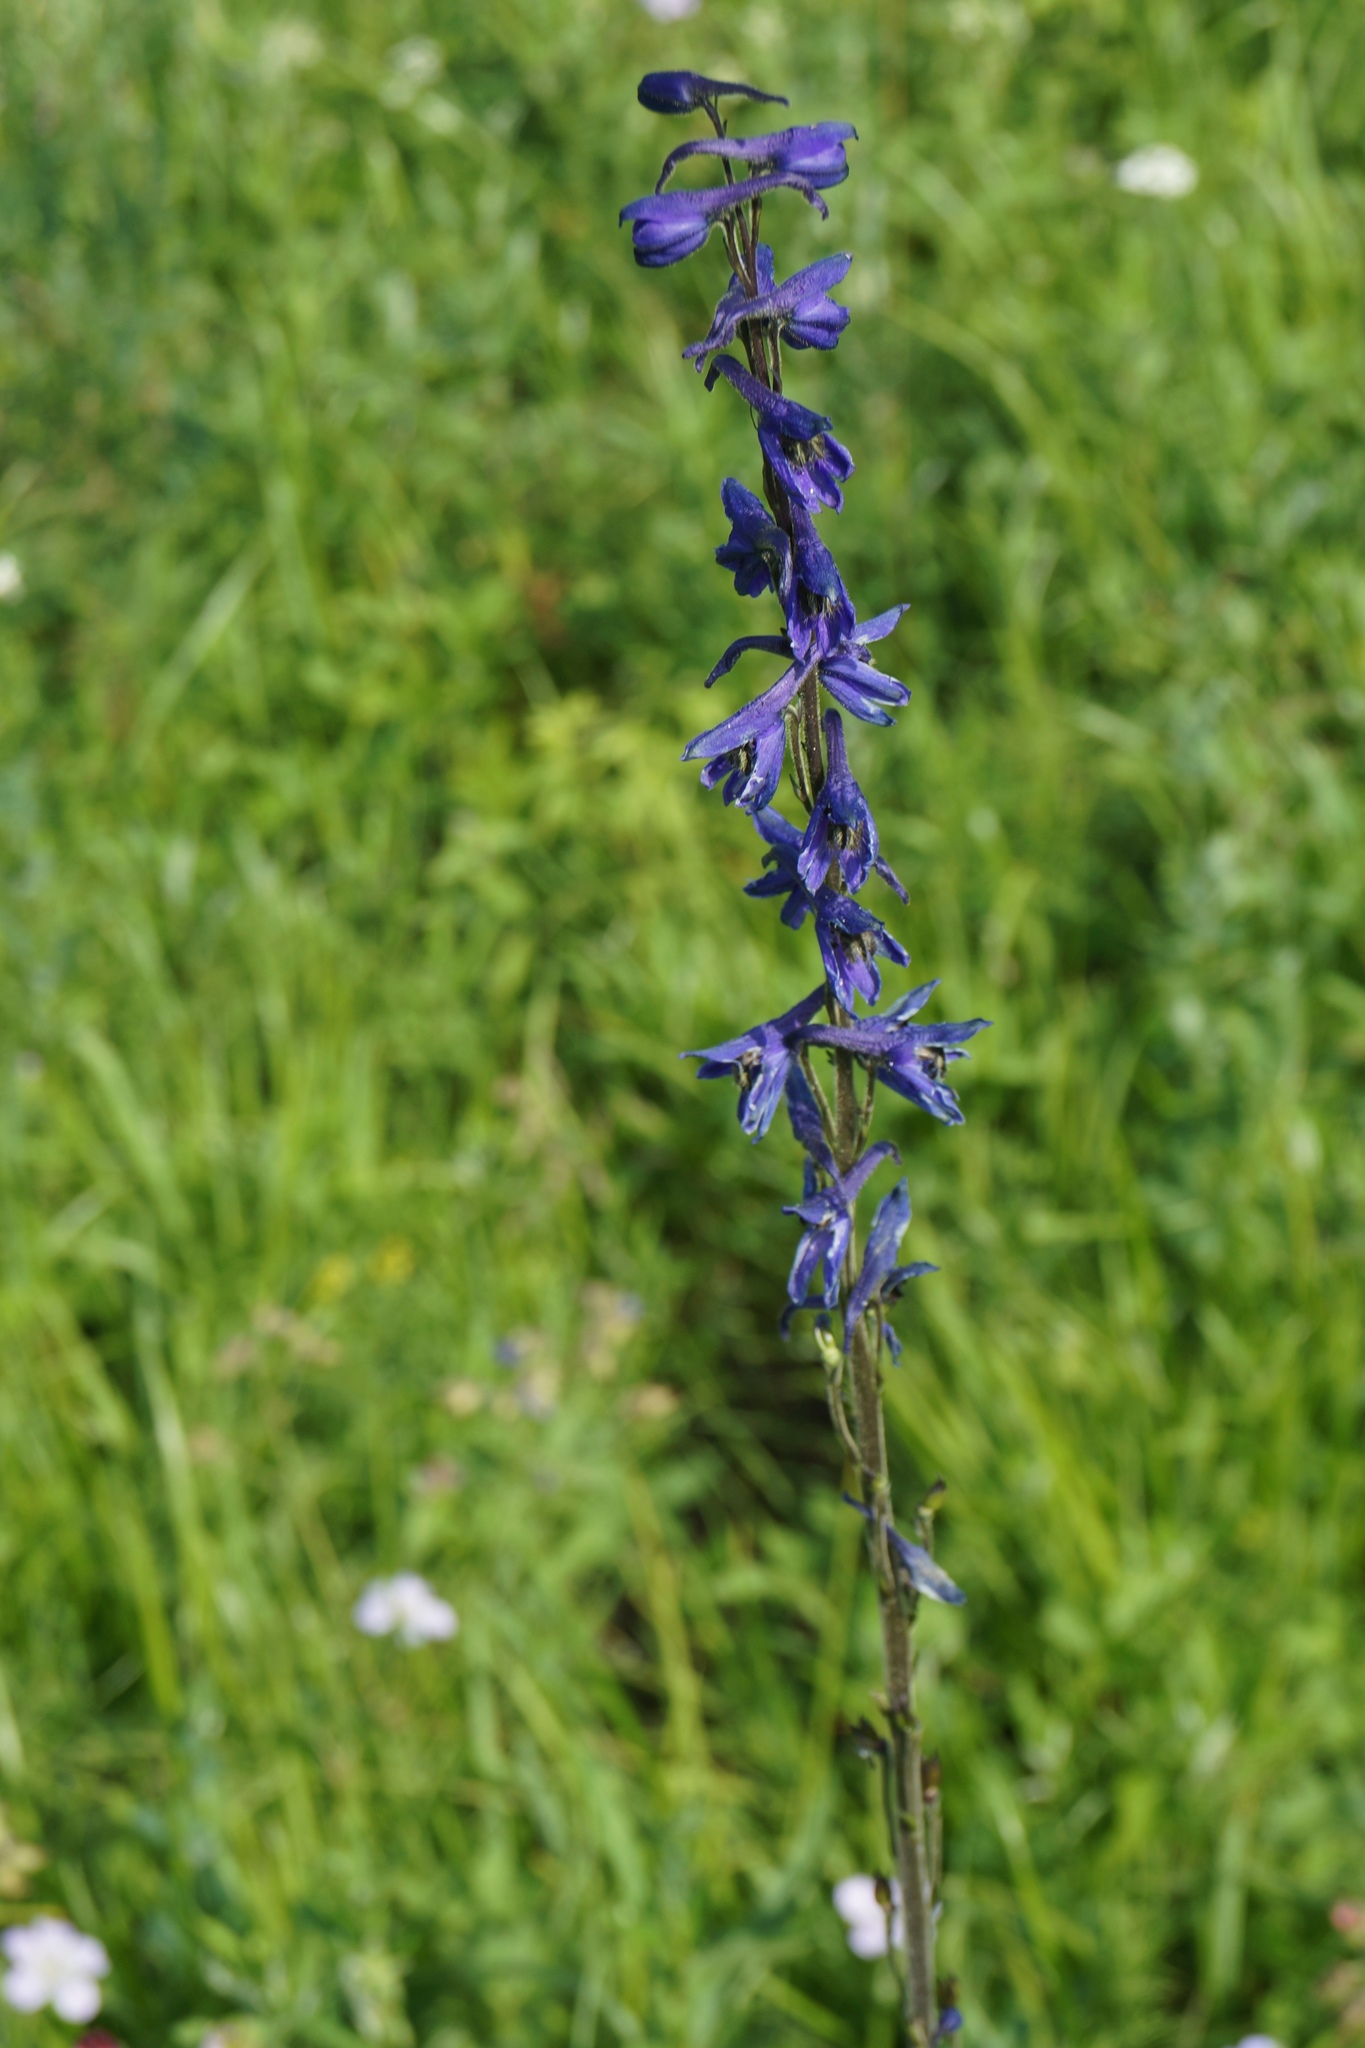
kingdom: Plantae
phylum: Tracheophyta
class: Magnoliopsida
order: Ranunculales
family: Ranunculaceae
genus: Delphinium
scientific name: Delphinium crassifolium
